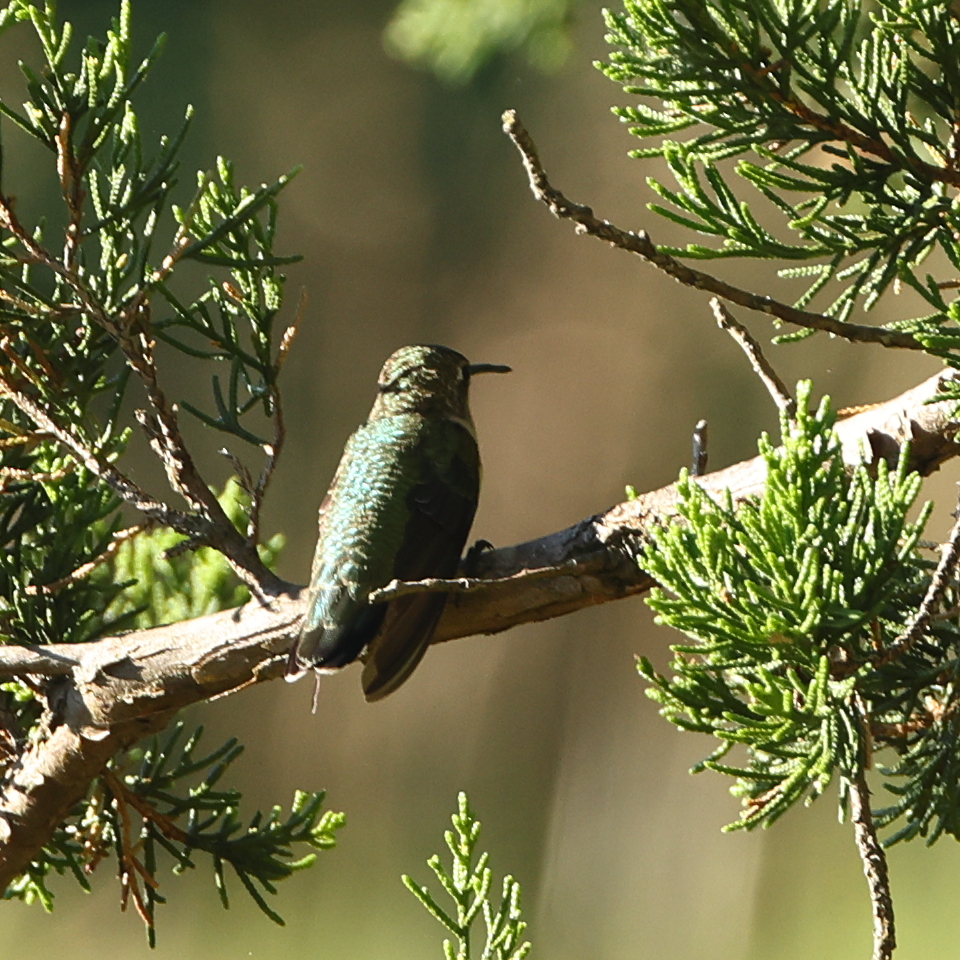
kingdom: Animalia
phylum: Chordata
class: Aves
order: Apodiformes
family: Trochilidae
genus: Archilochus
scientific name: Archilochus colubris
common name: Ruby-throated hummingbird
